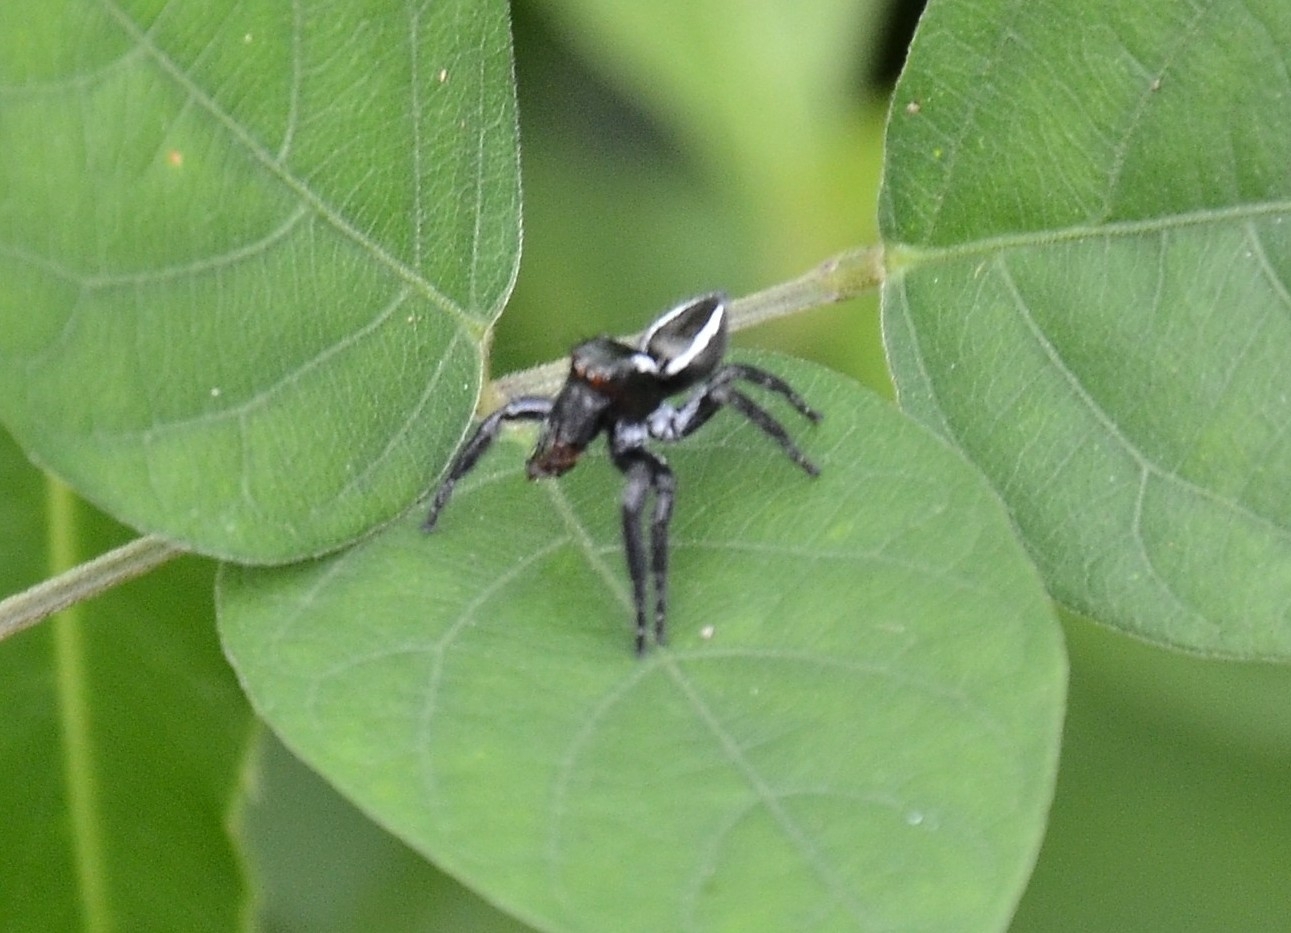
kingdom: Animalia
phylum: Arthropoda
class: Arachnida
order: Araneae
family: Salticidae
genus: Carrhotus
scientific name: Carrhotus viduus
